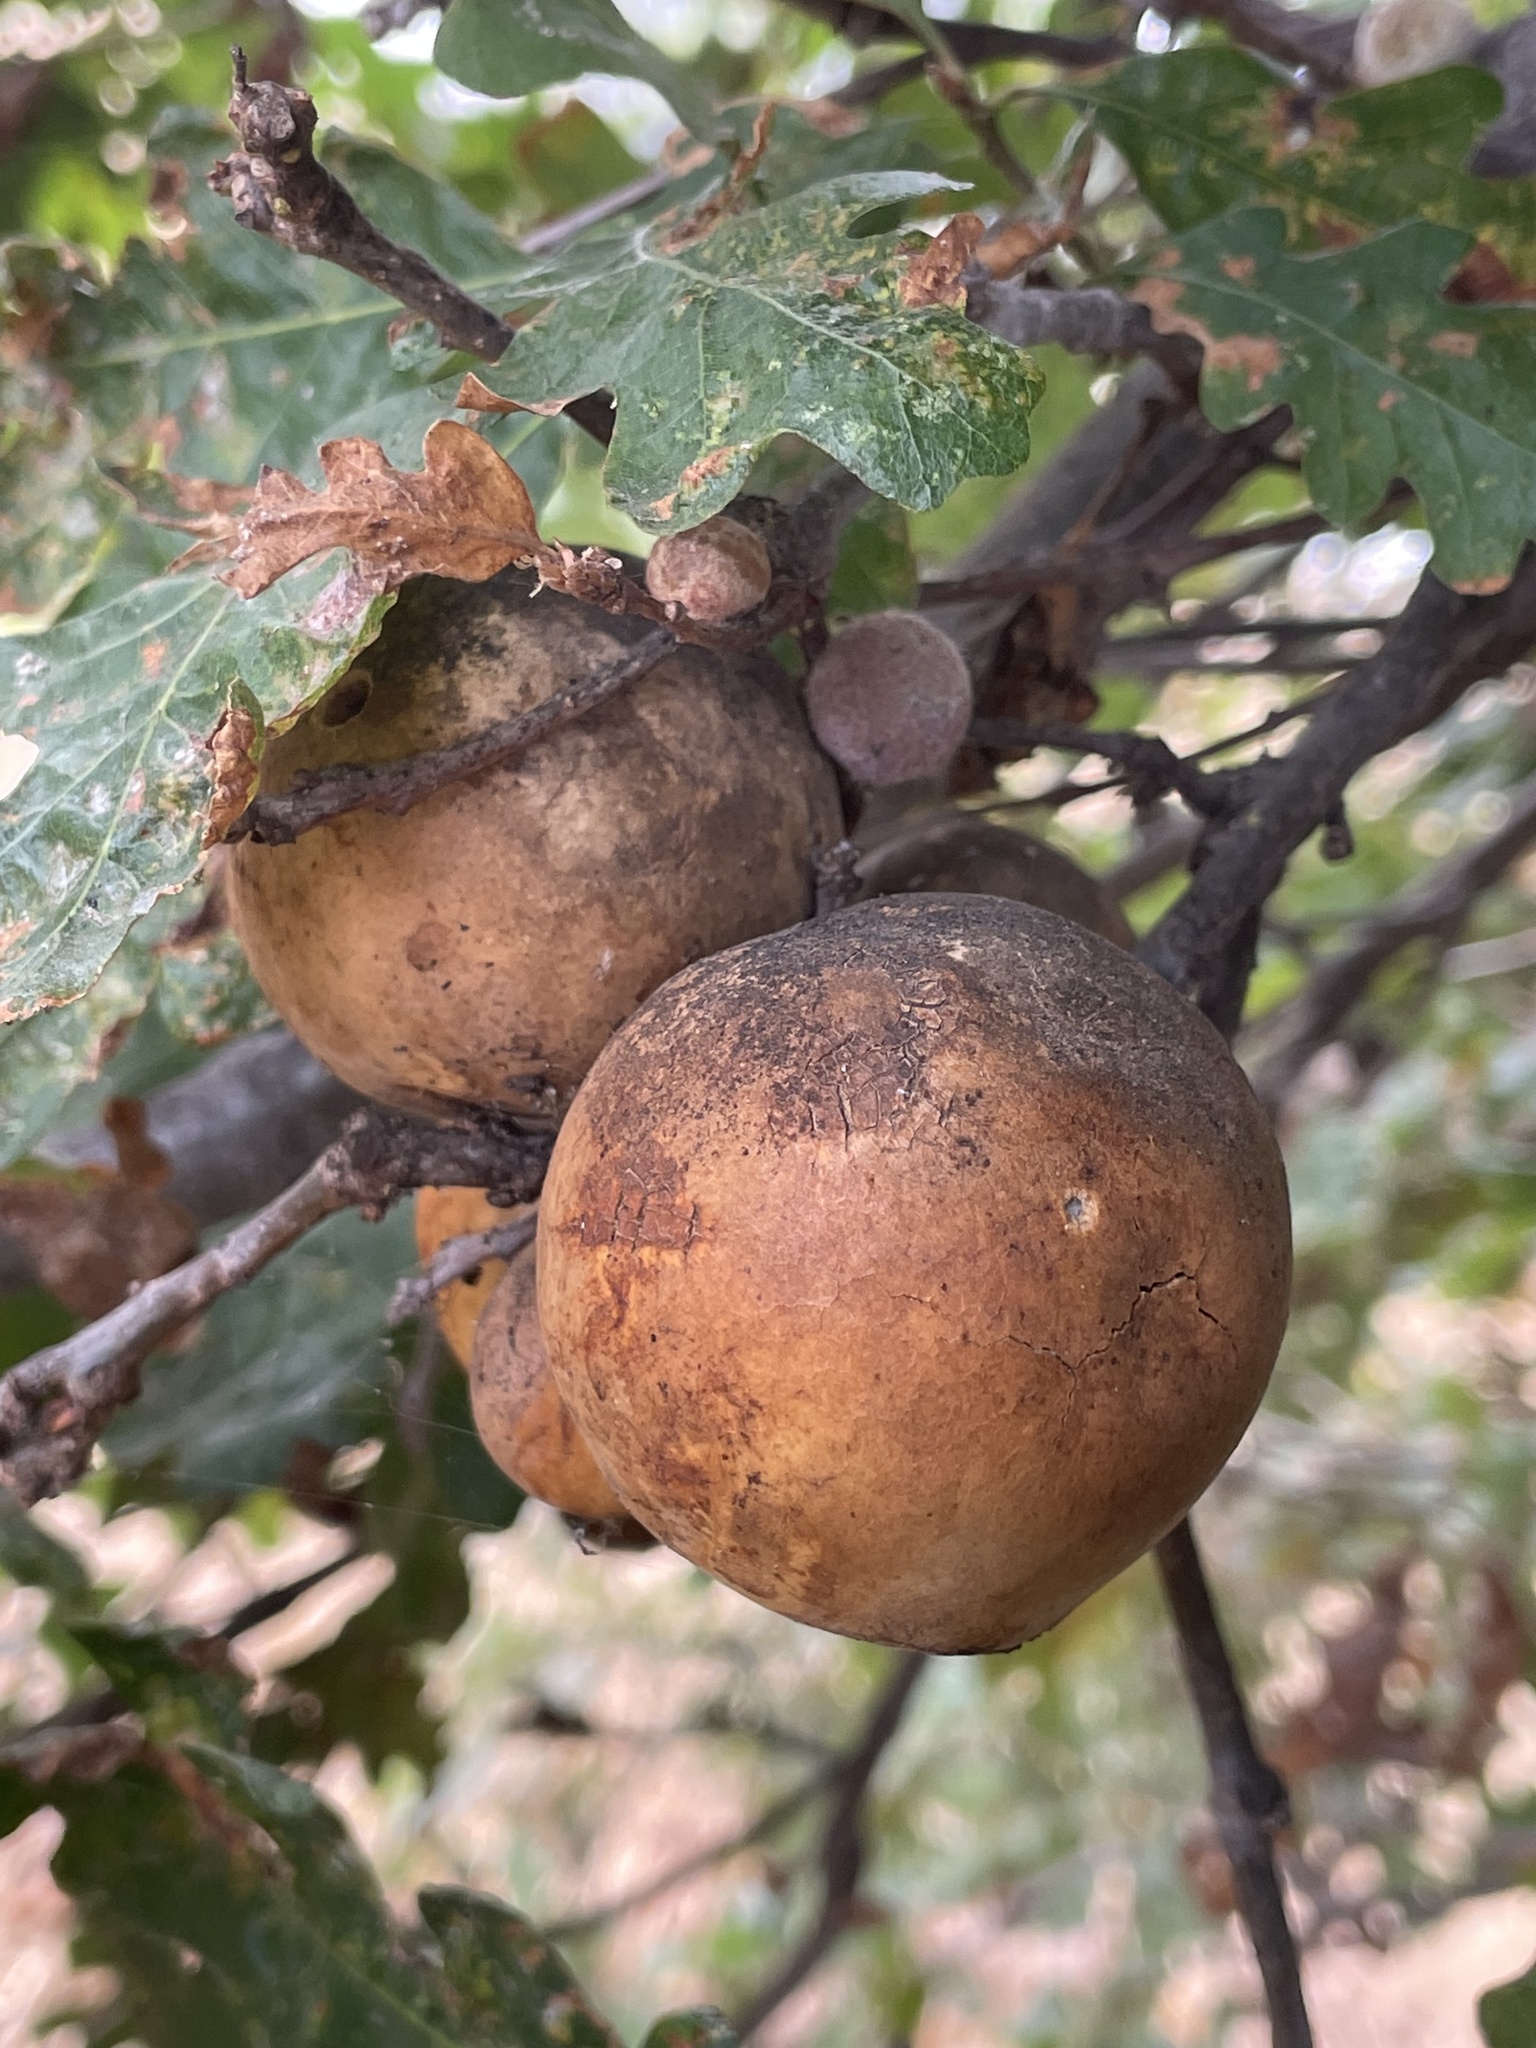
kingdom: Animalia
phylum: Arthropoda
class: Insecta
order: Hymenoptera
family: Cynipidae
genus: Andricus
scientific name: Andricus quercuscalifornicus
